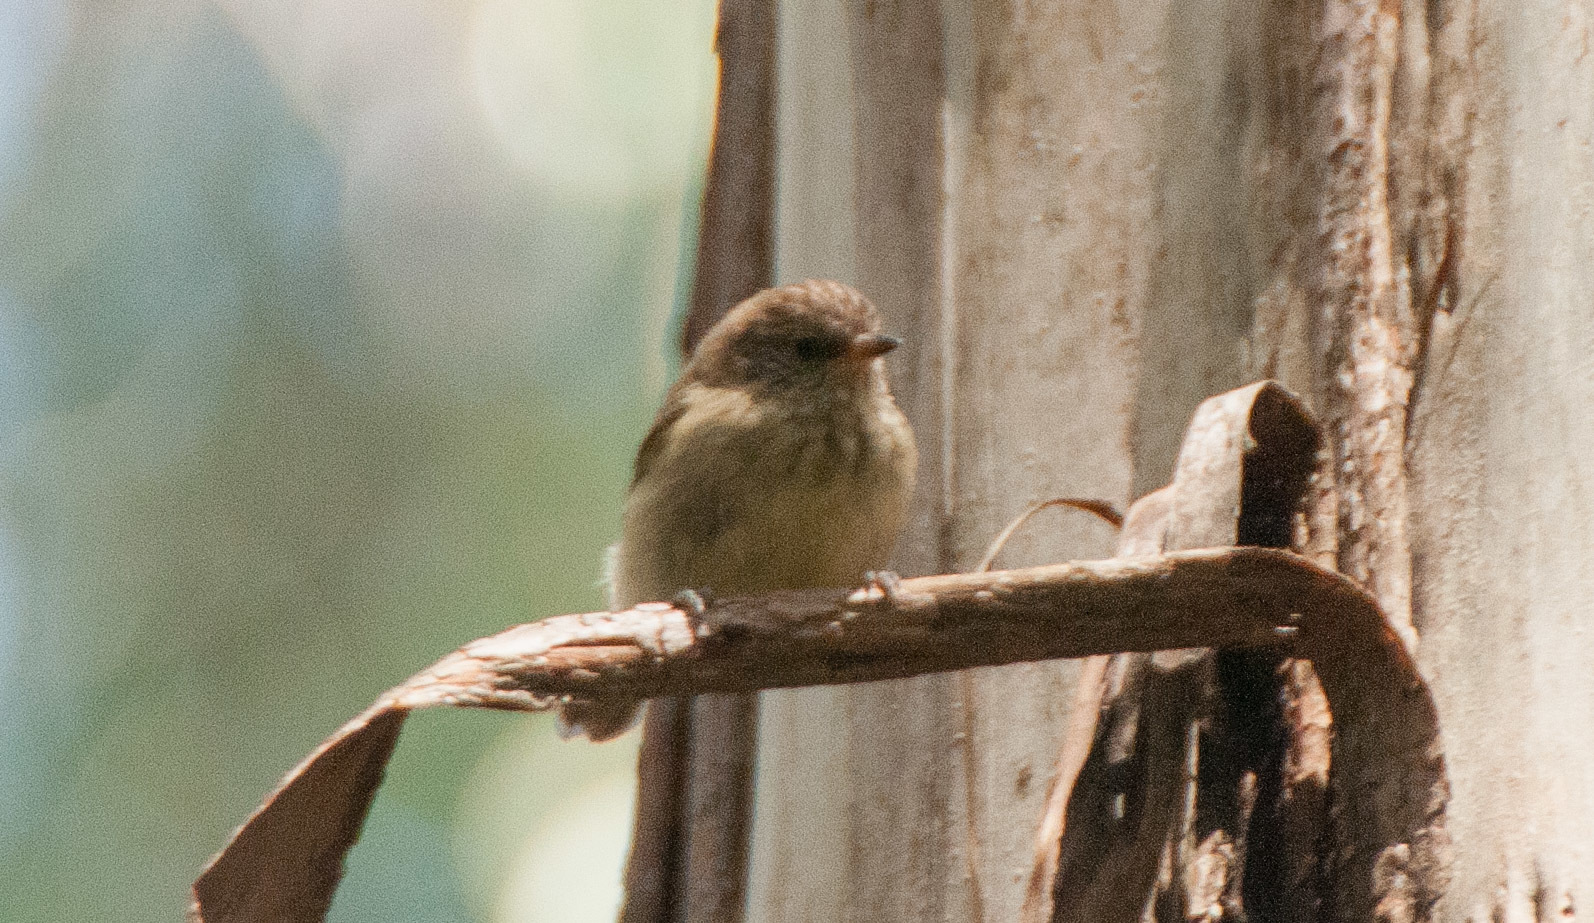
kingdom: Animalia
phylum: Chordata
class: Aves
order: Passeriformes
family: Acanthizidae
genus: Acanthiza
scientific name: Acanthiza pusilla
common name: Brown thornbill
